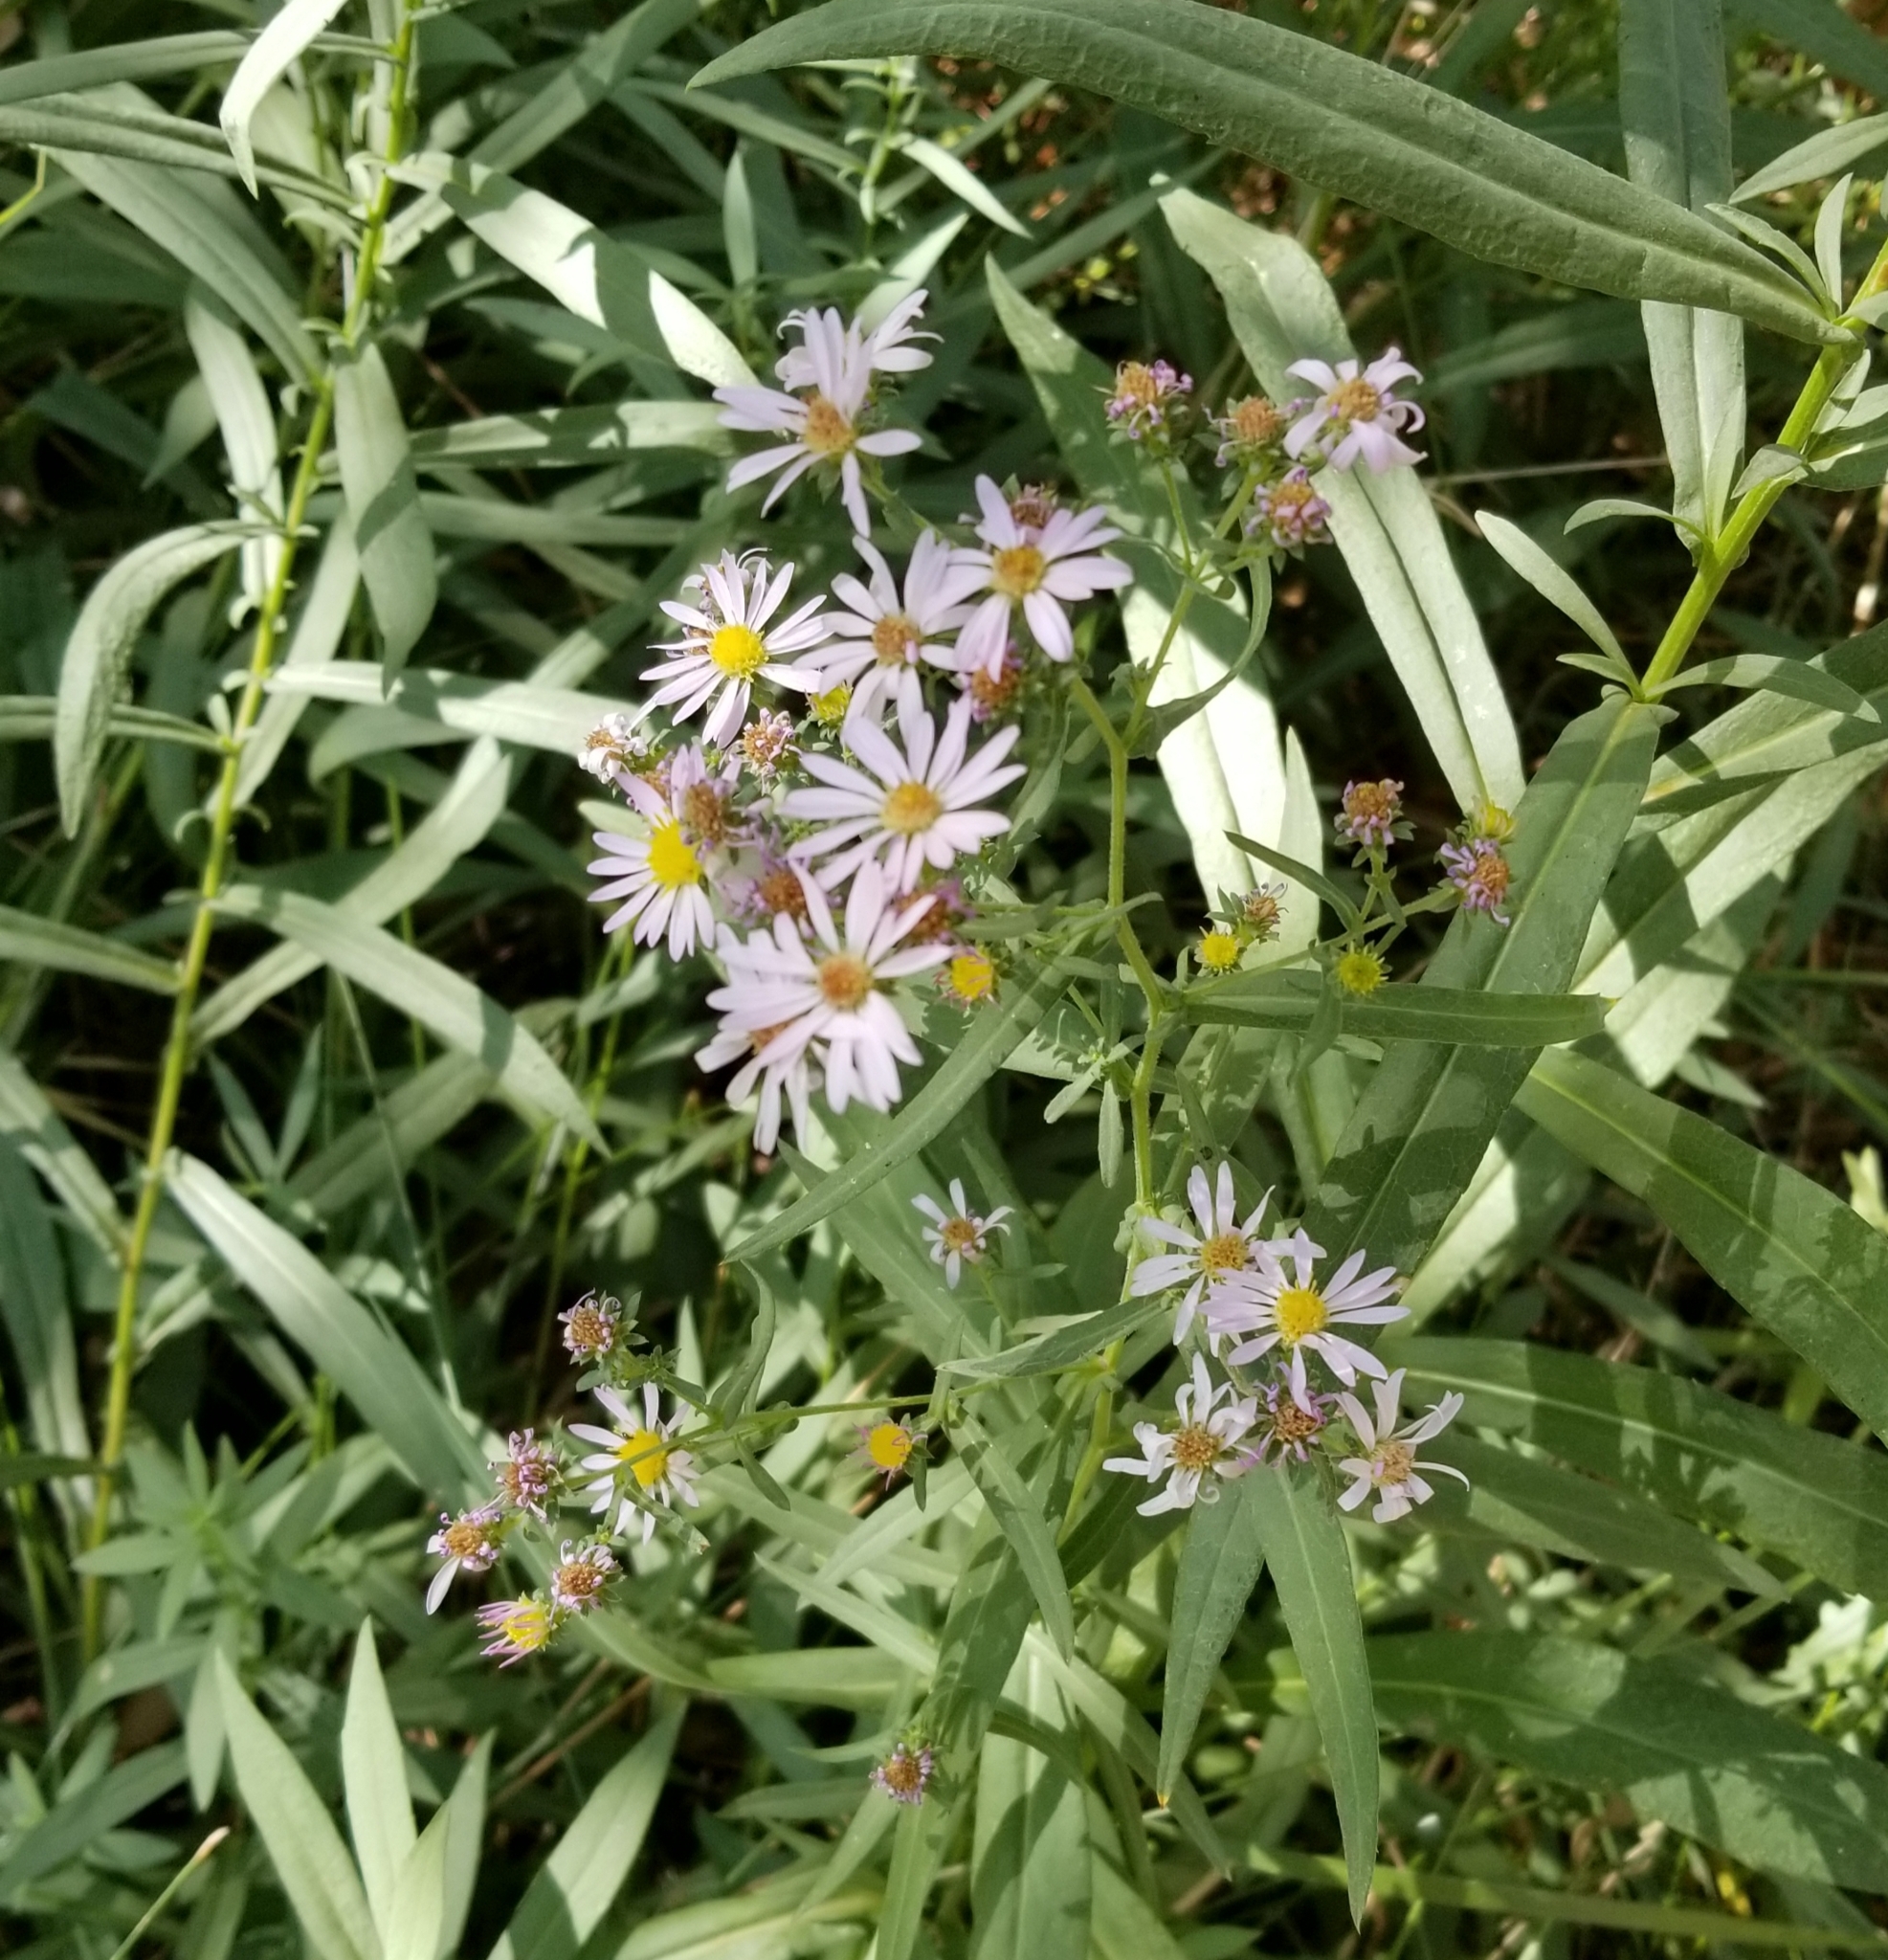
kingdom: Plantae
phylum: Tracheophyta
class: Magnoliopsida
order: Asterales
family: Asteraceae
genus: Symphyotrichum
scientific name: Symphyotrichum chilense
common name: Pacific aster
